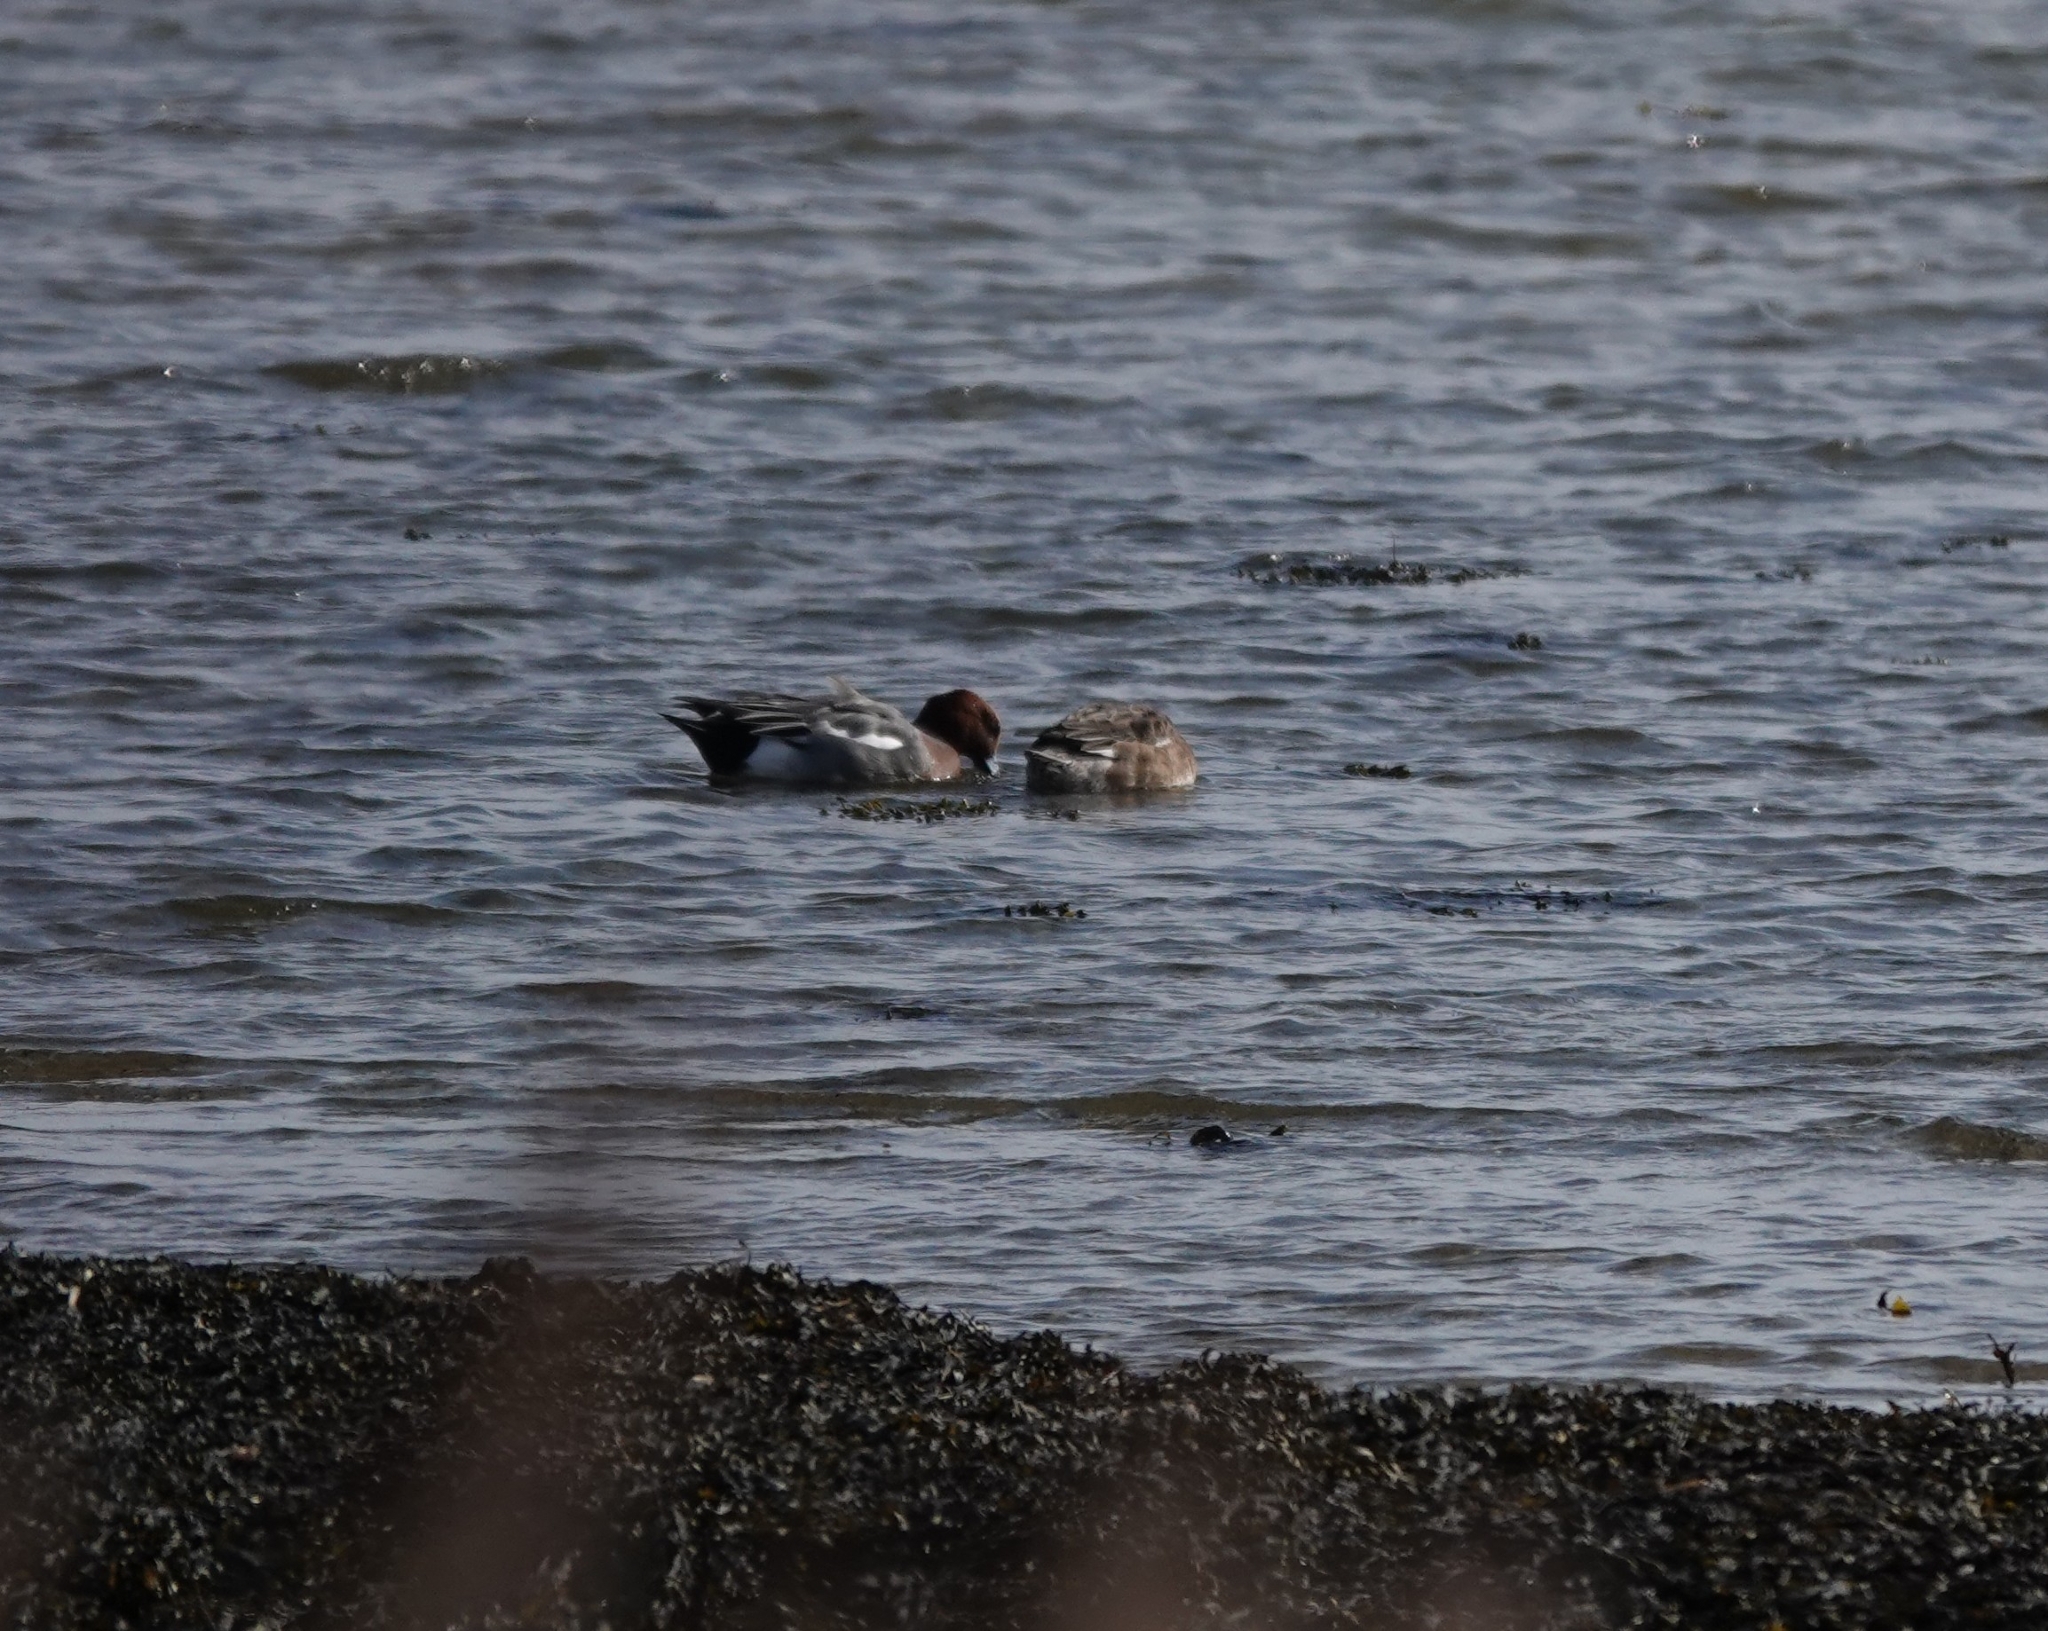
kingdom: Animalia
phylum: Chordata
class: Aves
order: Anseriformes
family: Anatidae
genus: Mareca
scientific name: Mareca penelope
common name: Eurasian wigeon
